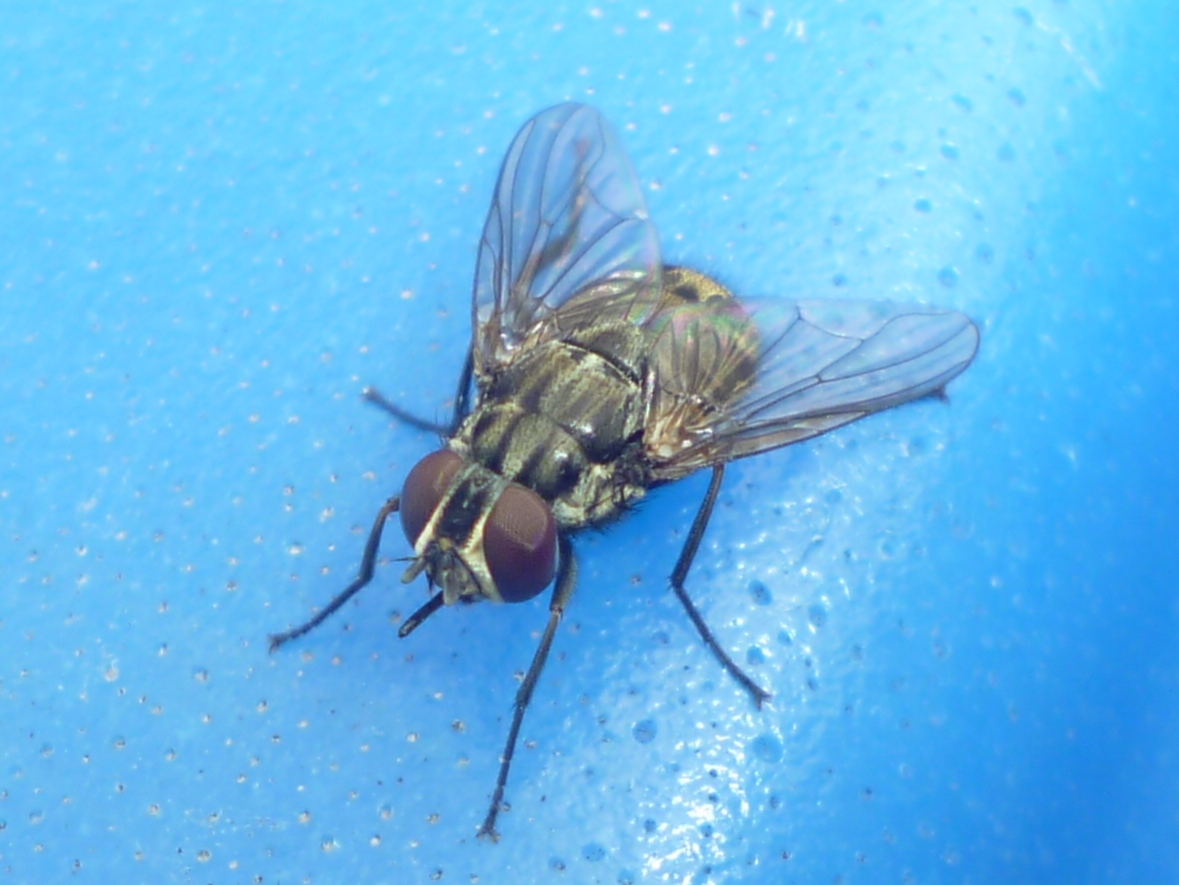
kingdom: Animalia
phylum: Arthropoda
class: Insecta
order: Diptera
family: Muscidae
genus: Stomoxys
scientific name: Stomoxys calcitrans
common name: Stable fly
